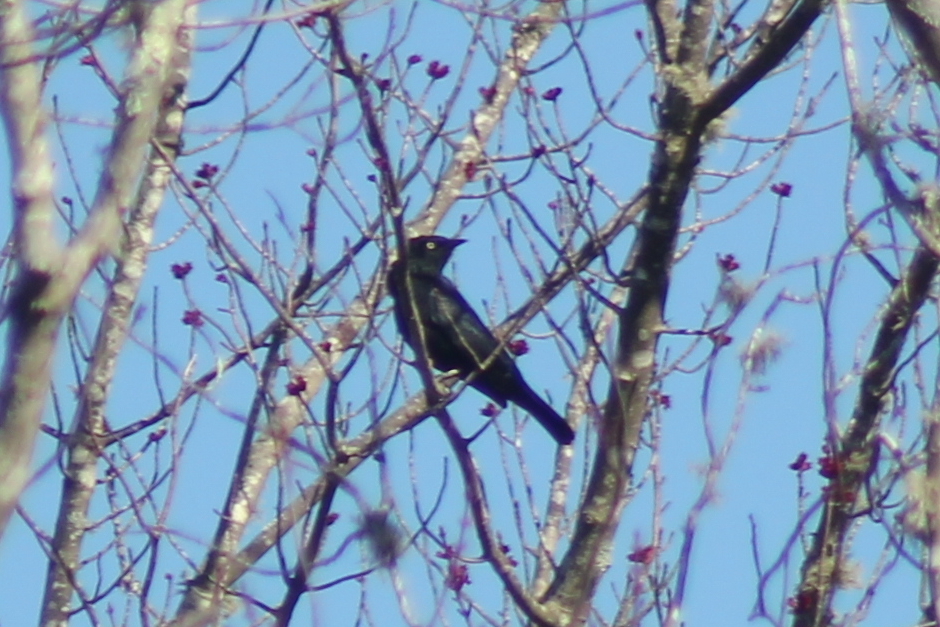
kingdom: Animalia
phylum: Chordata
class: Aves
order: Passeriformes
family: Icteridae
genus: Euphagus
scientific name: Euphagus carolinus
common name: Rusty blackbird
